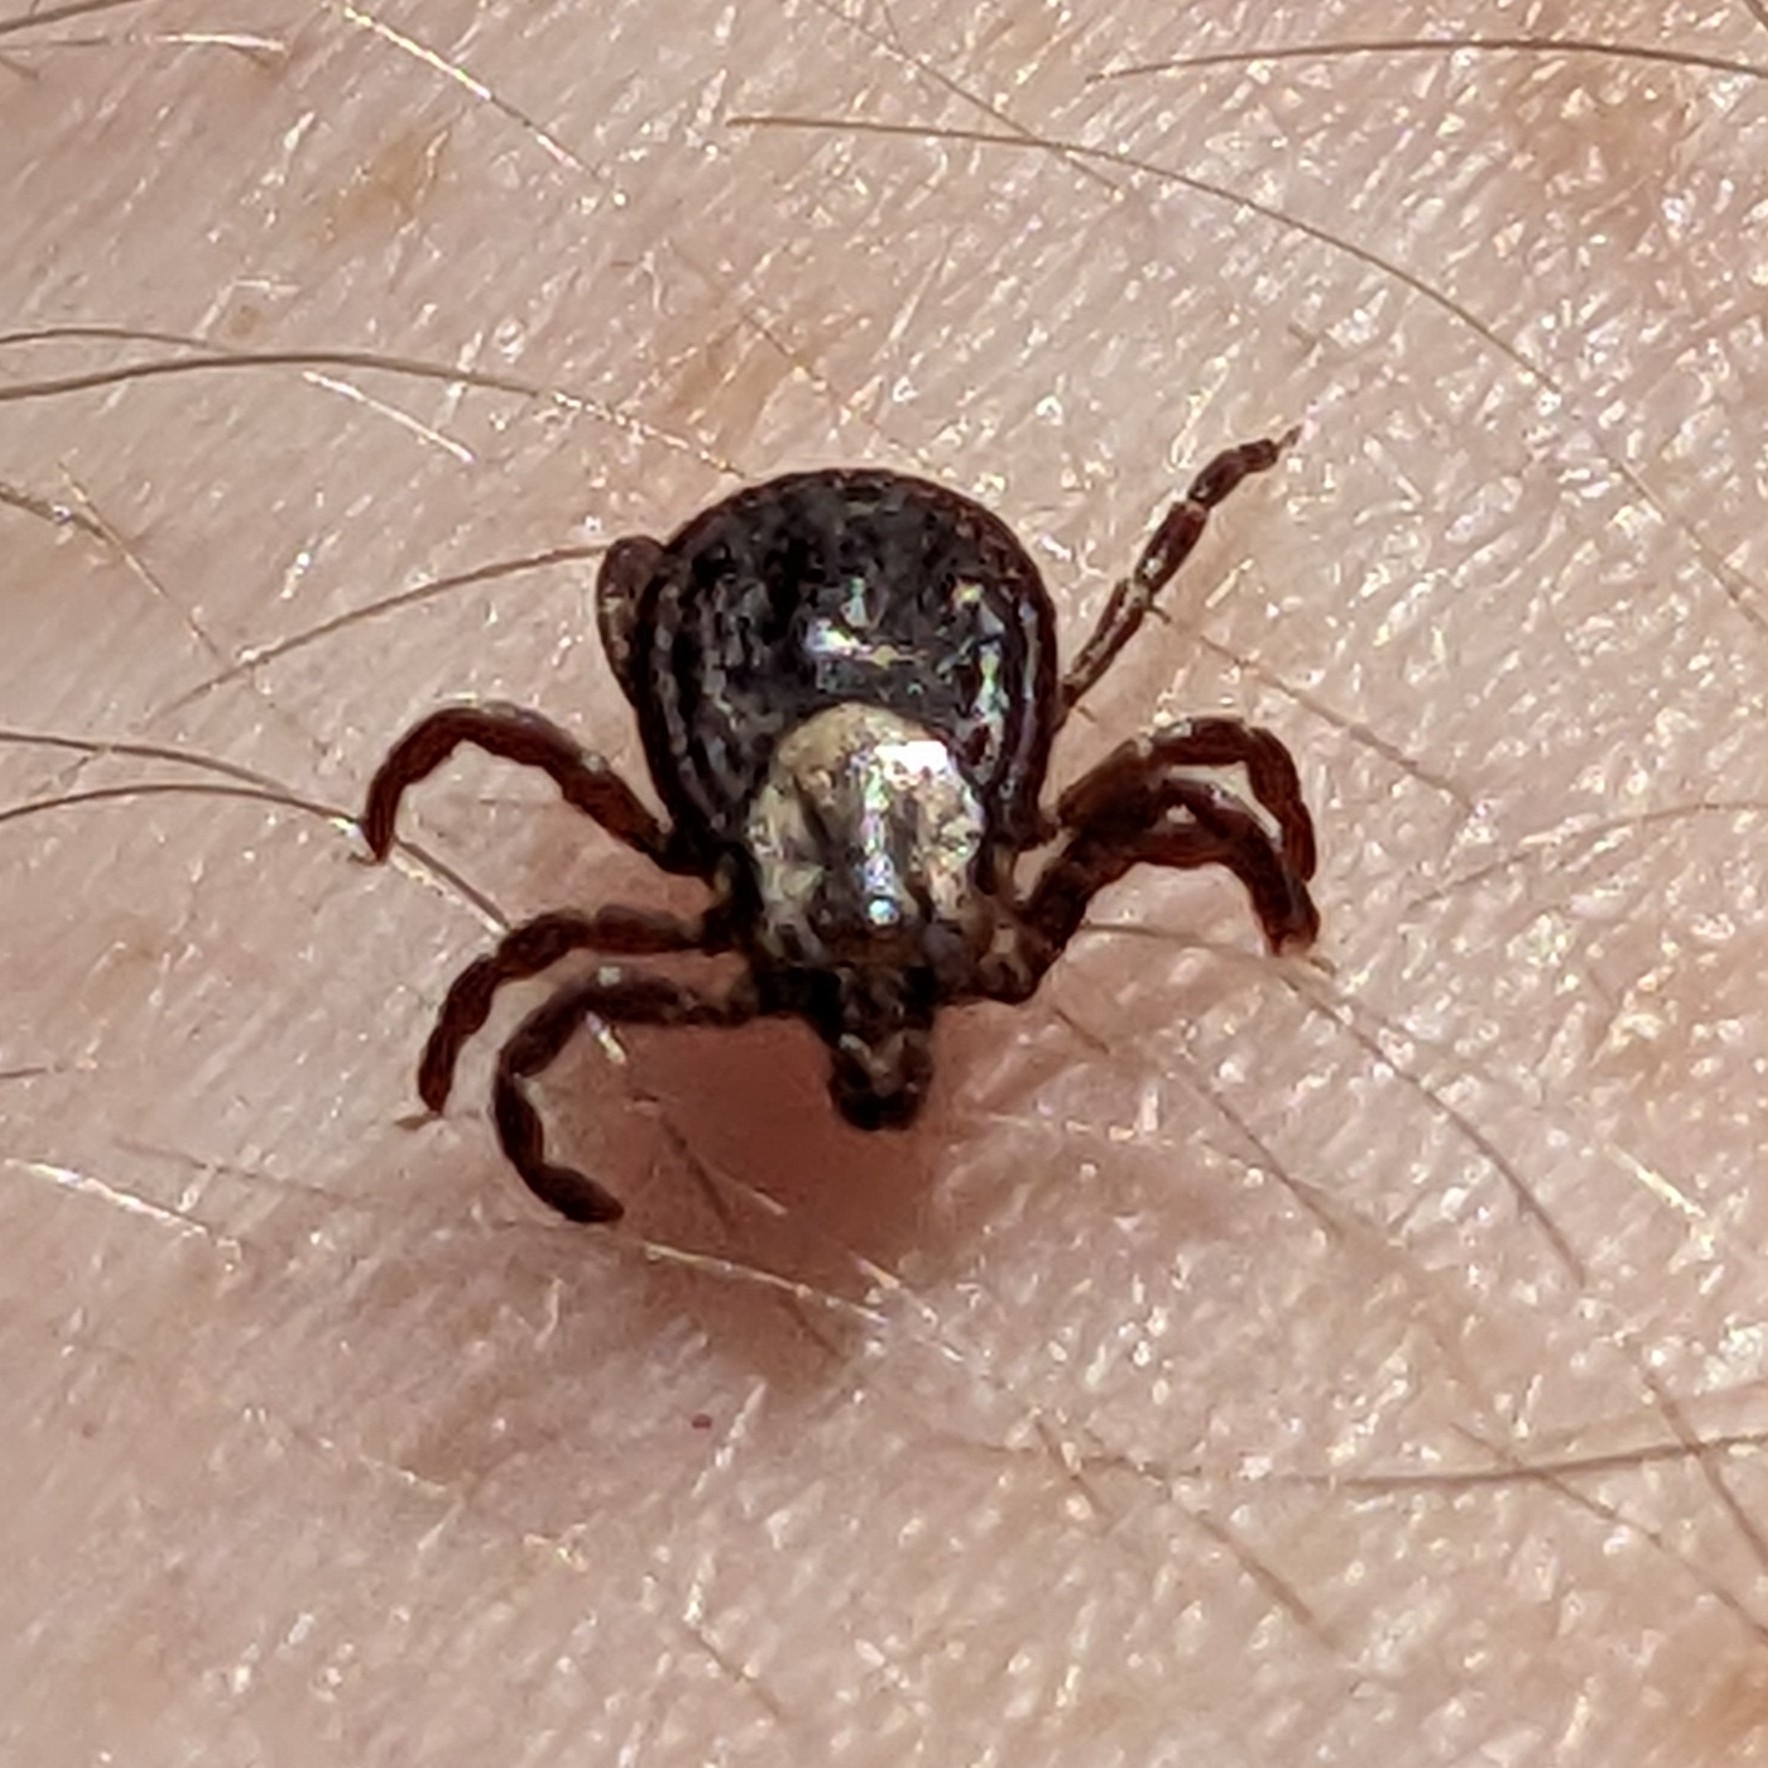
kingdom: Animalia
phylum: Arthropoda
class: Arachnida
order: Ixodida
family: Ixodidae
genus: Dermacentor
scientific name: Dermacentor variabilis
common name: American dog tick
